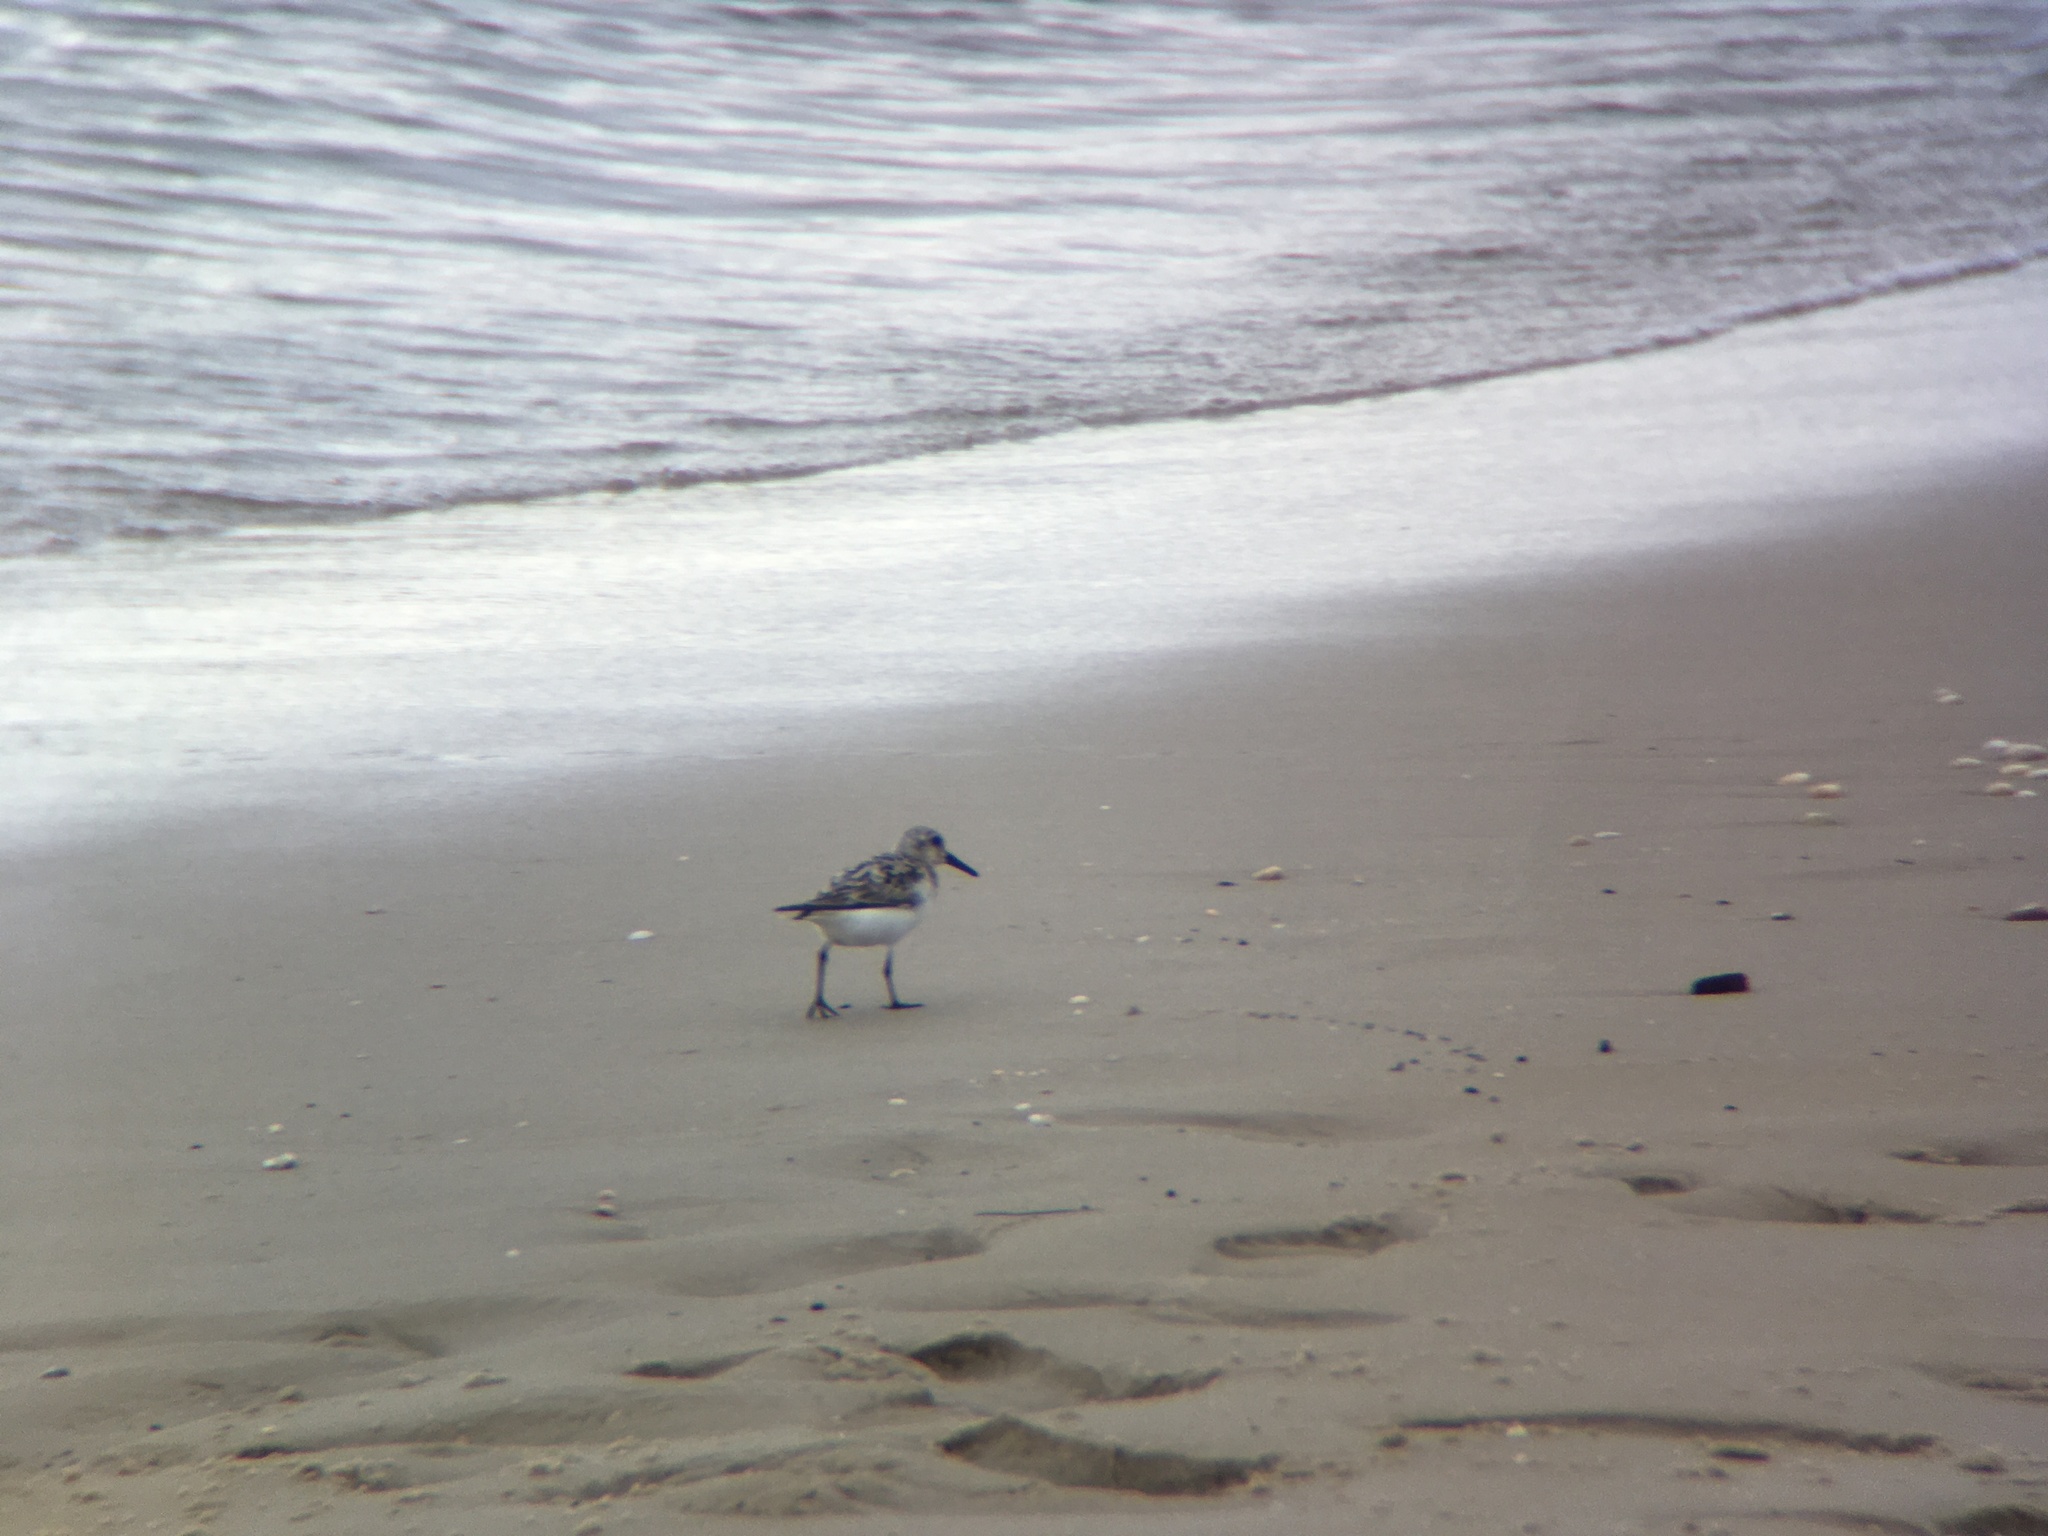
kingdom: Animalia
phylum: Chordata
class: Aves
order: Charadriiformes
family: Scolopacidae
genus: Calidris
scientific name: Calidris alba
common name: Sanderling
